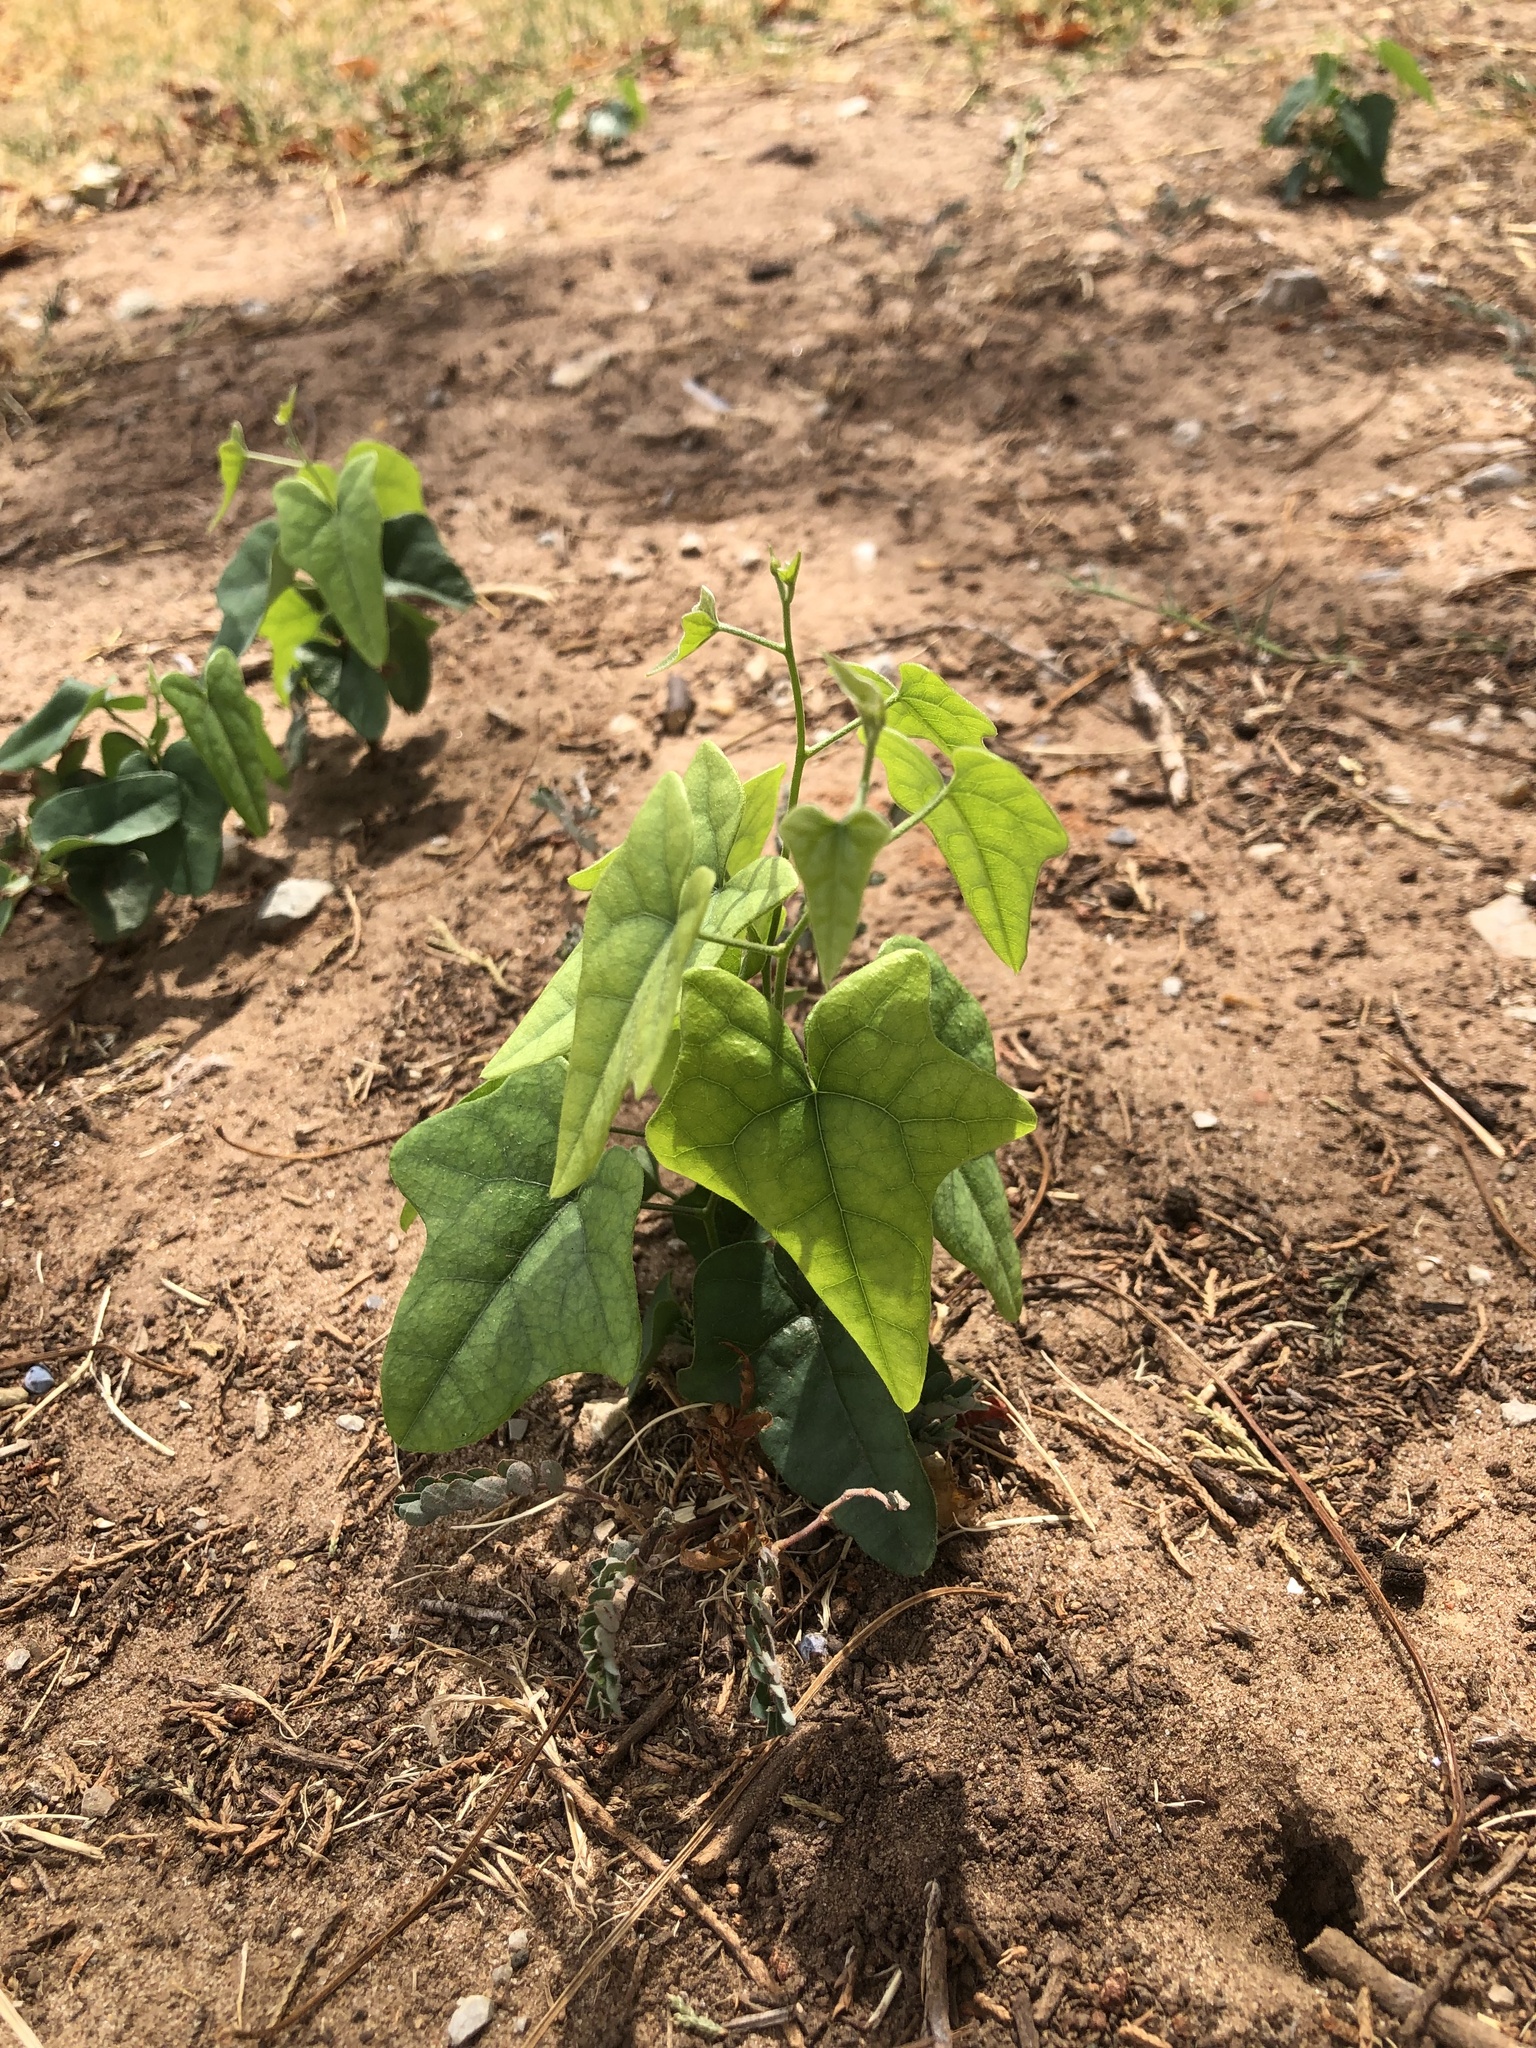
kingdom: Plantae
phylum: Tracheophyta
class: Magnoliopsida
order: Ranunculales
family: Menispermaceae
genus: Cocculus
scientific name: Cocculus carolinus
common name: Carolina moonseed
